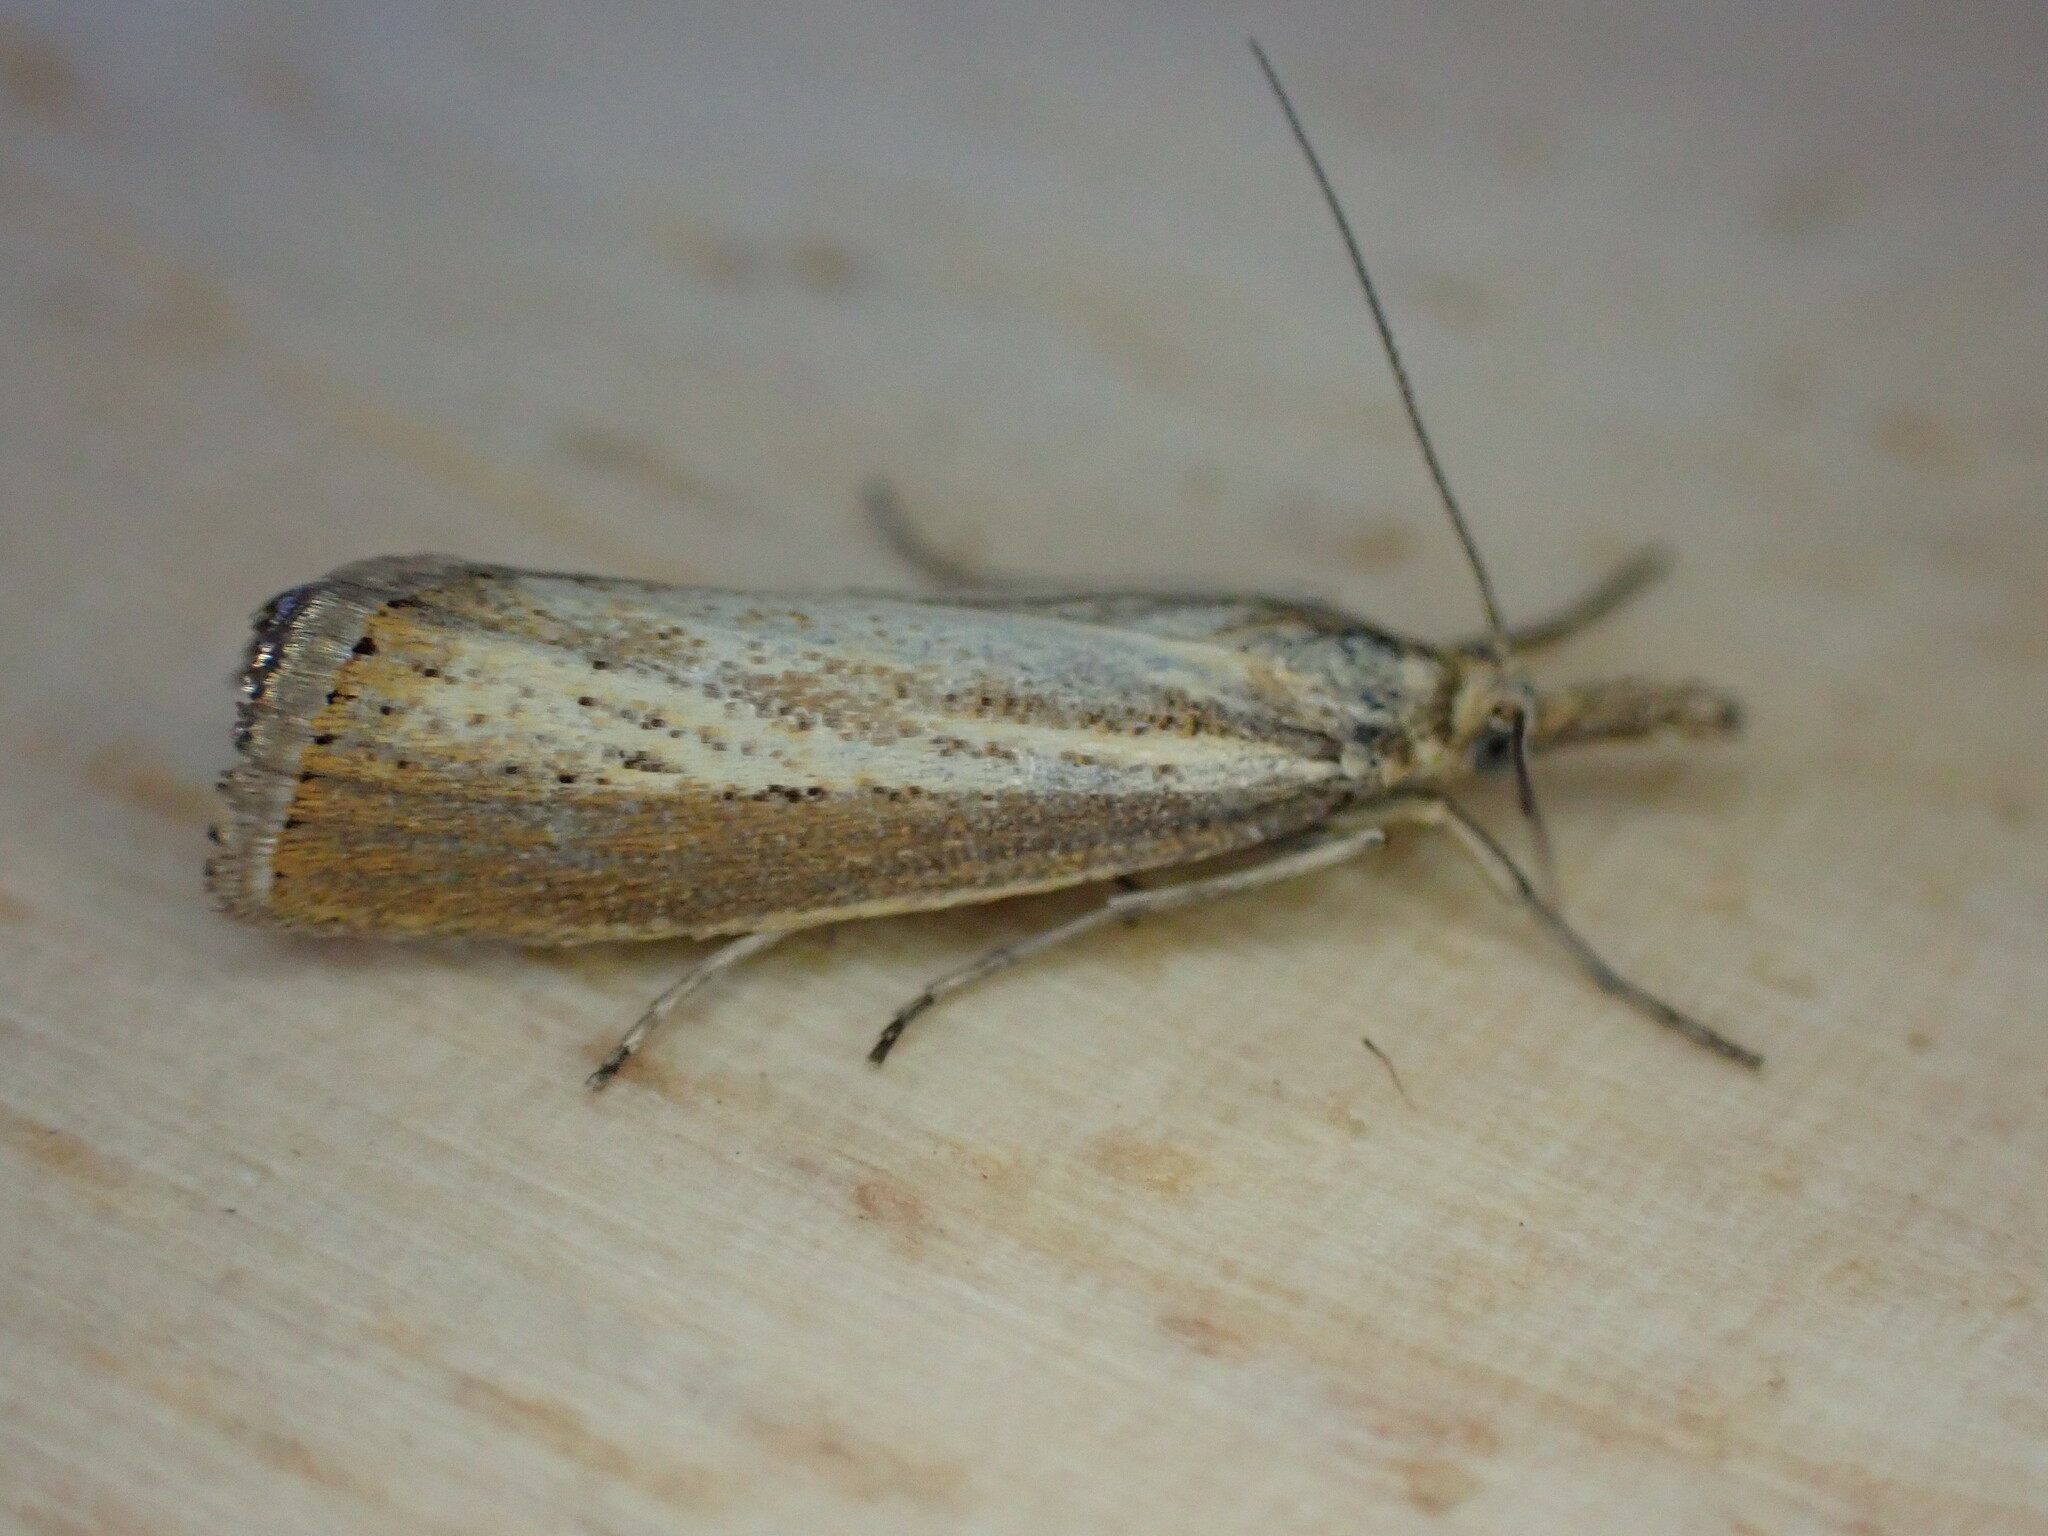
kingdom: Animalia
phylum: Arthropoda
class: Insecta
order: Lepidoptera
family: Crambidae
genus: Agriphila
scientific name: Agriphila straminella
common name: Straw grass-veneer
